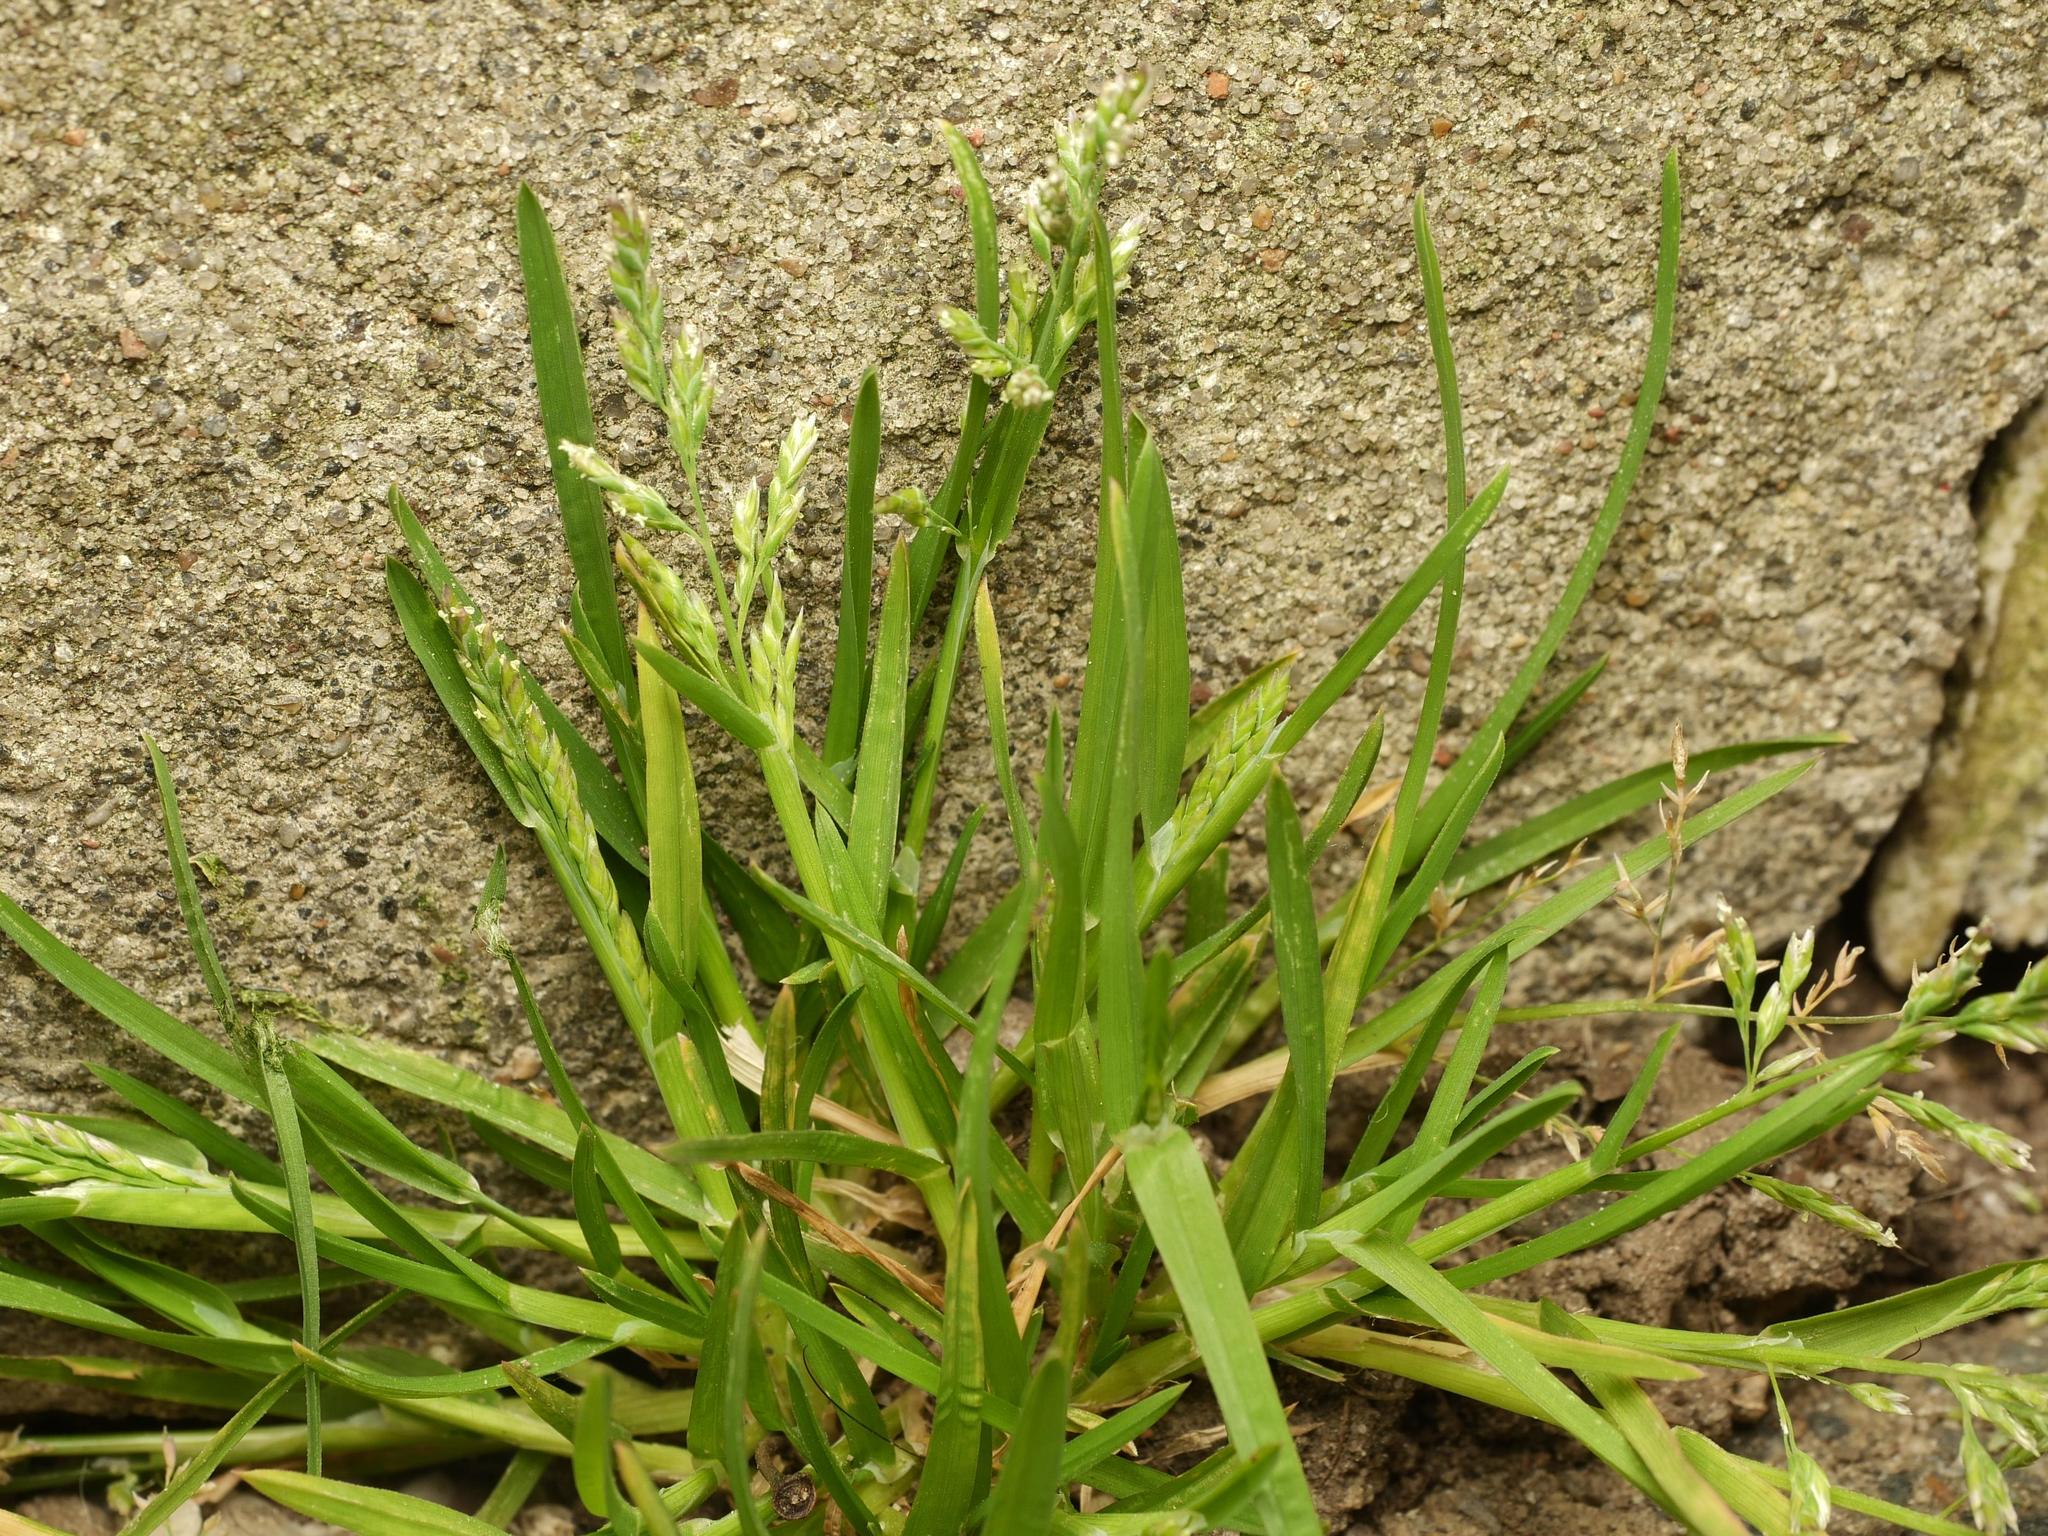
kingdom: Plantae
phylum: Tracheophyta
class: Liliopsida
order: Poales
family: Poaceae
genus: Poa
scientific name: Poa annua
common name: Annual bluegrass
